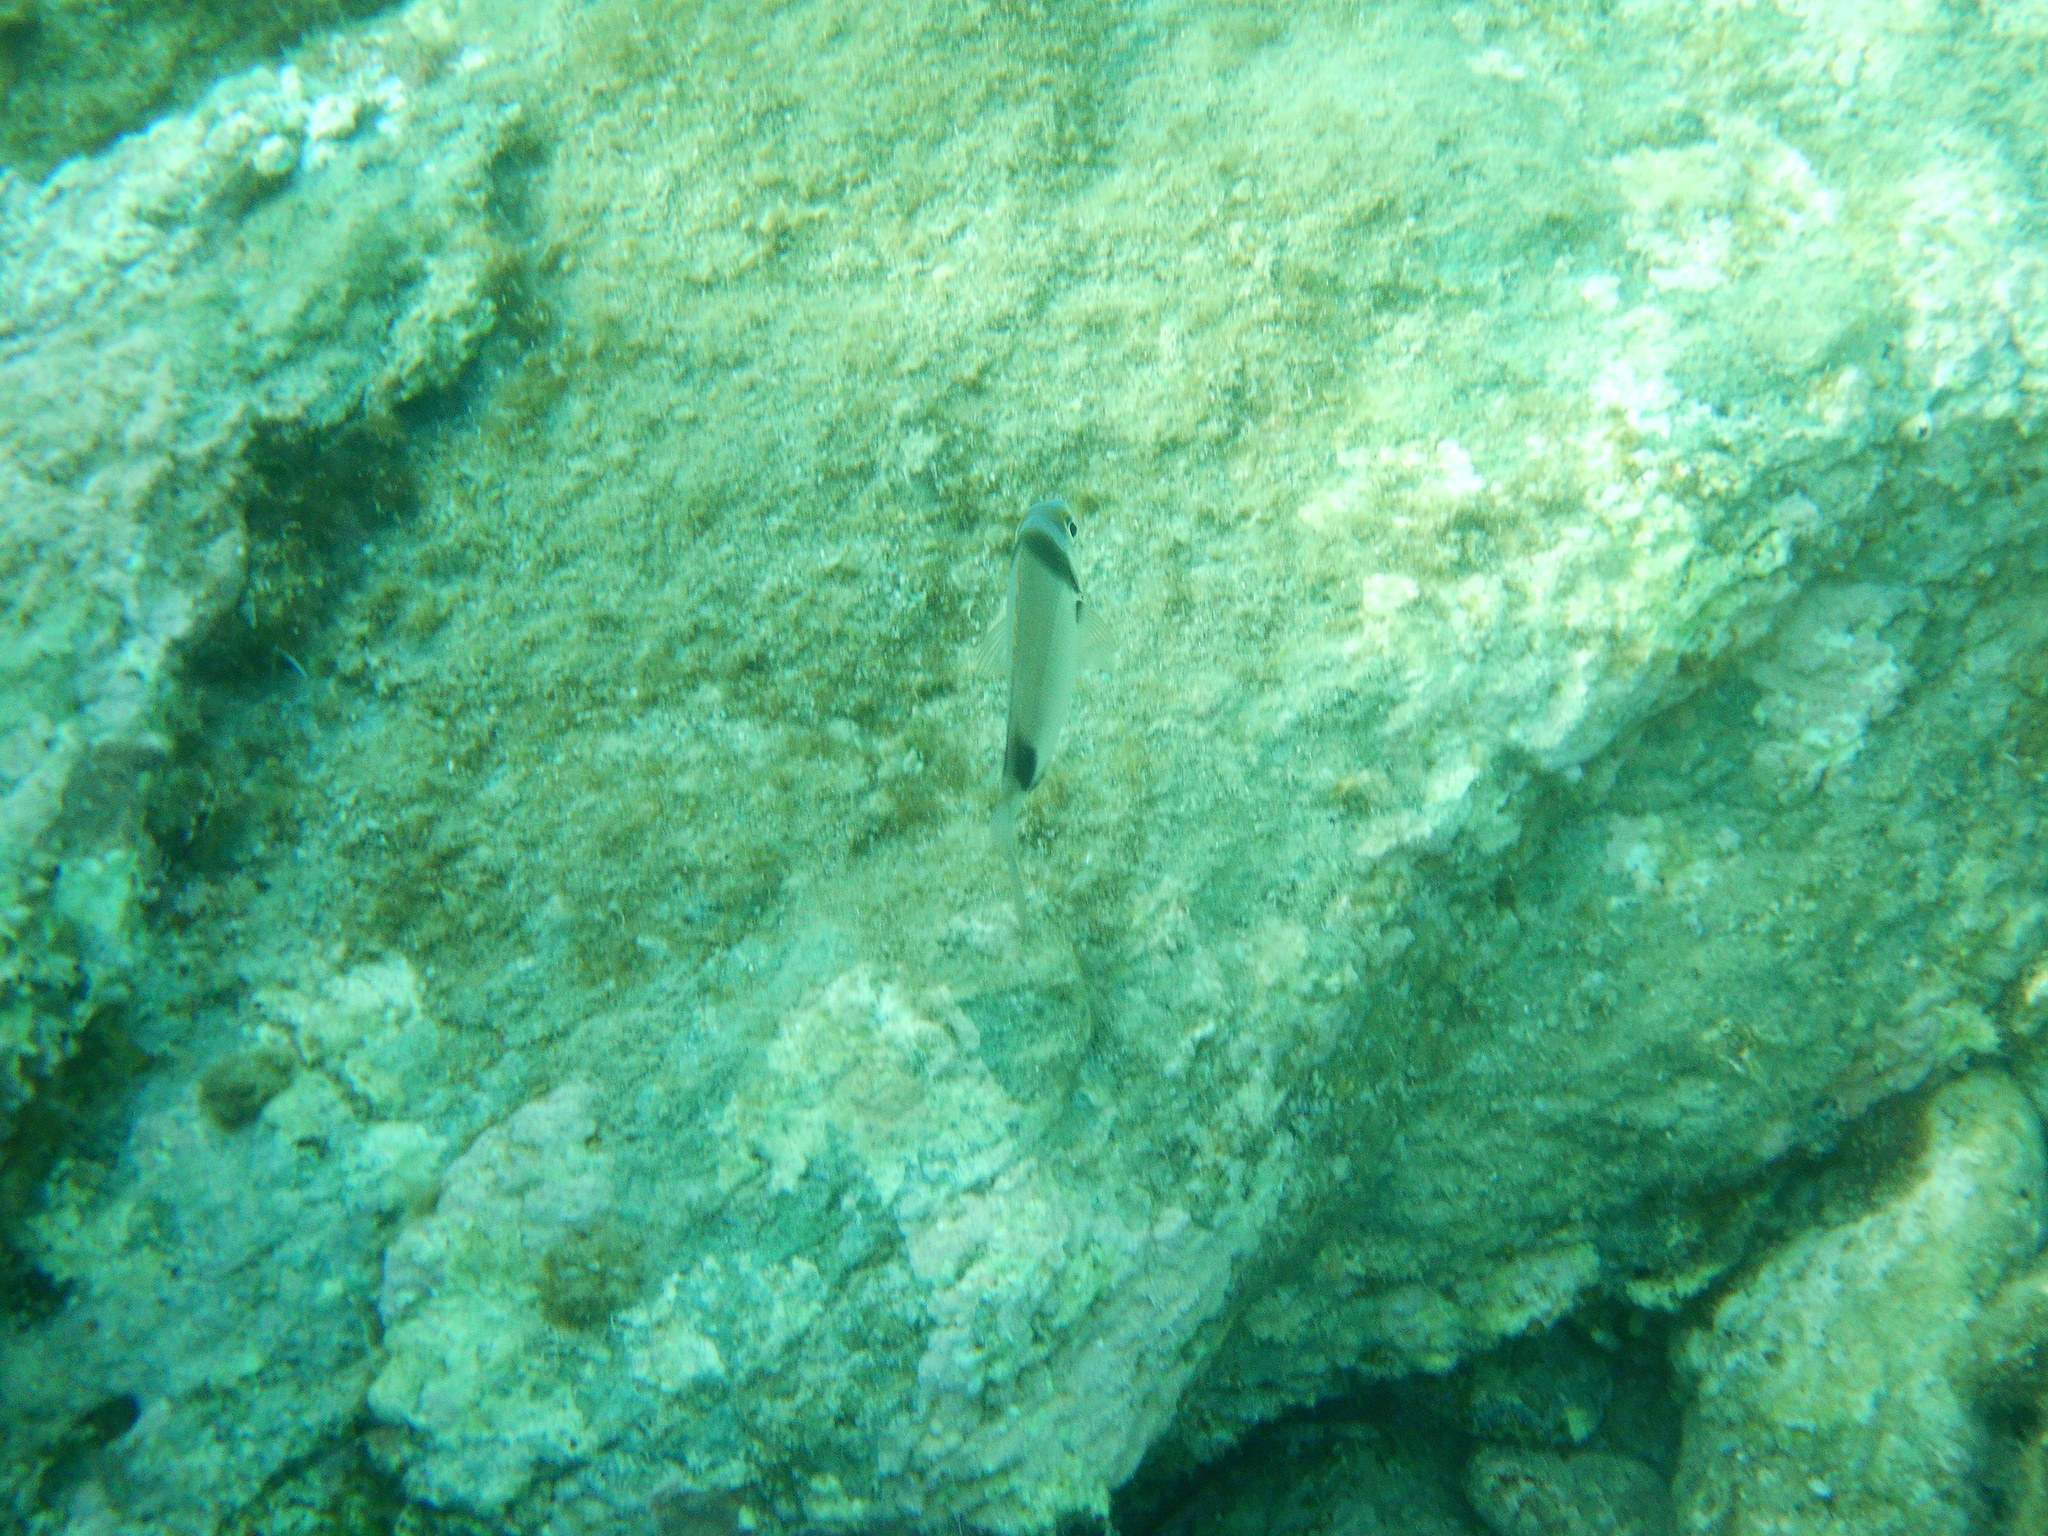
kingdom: Animalia
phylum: Chordata
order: Perciformes
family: Sparidae
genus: Diplodus
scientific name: Diplodus vulgaris
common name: Common two-banded seabream
